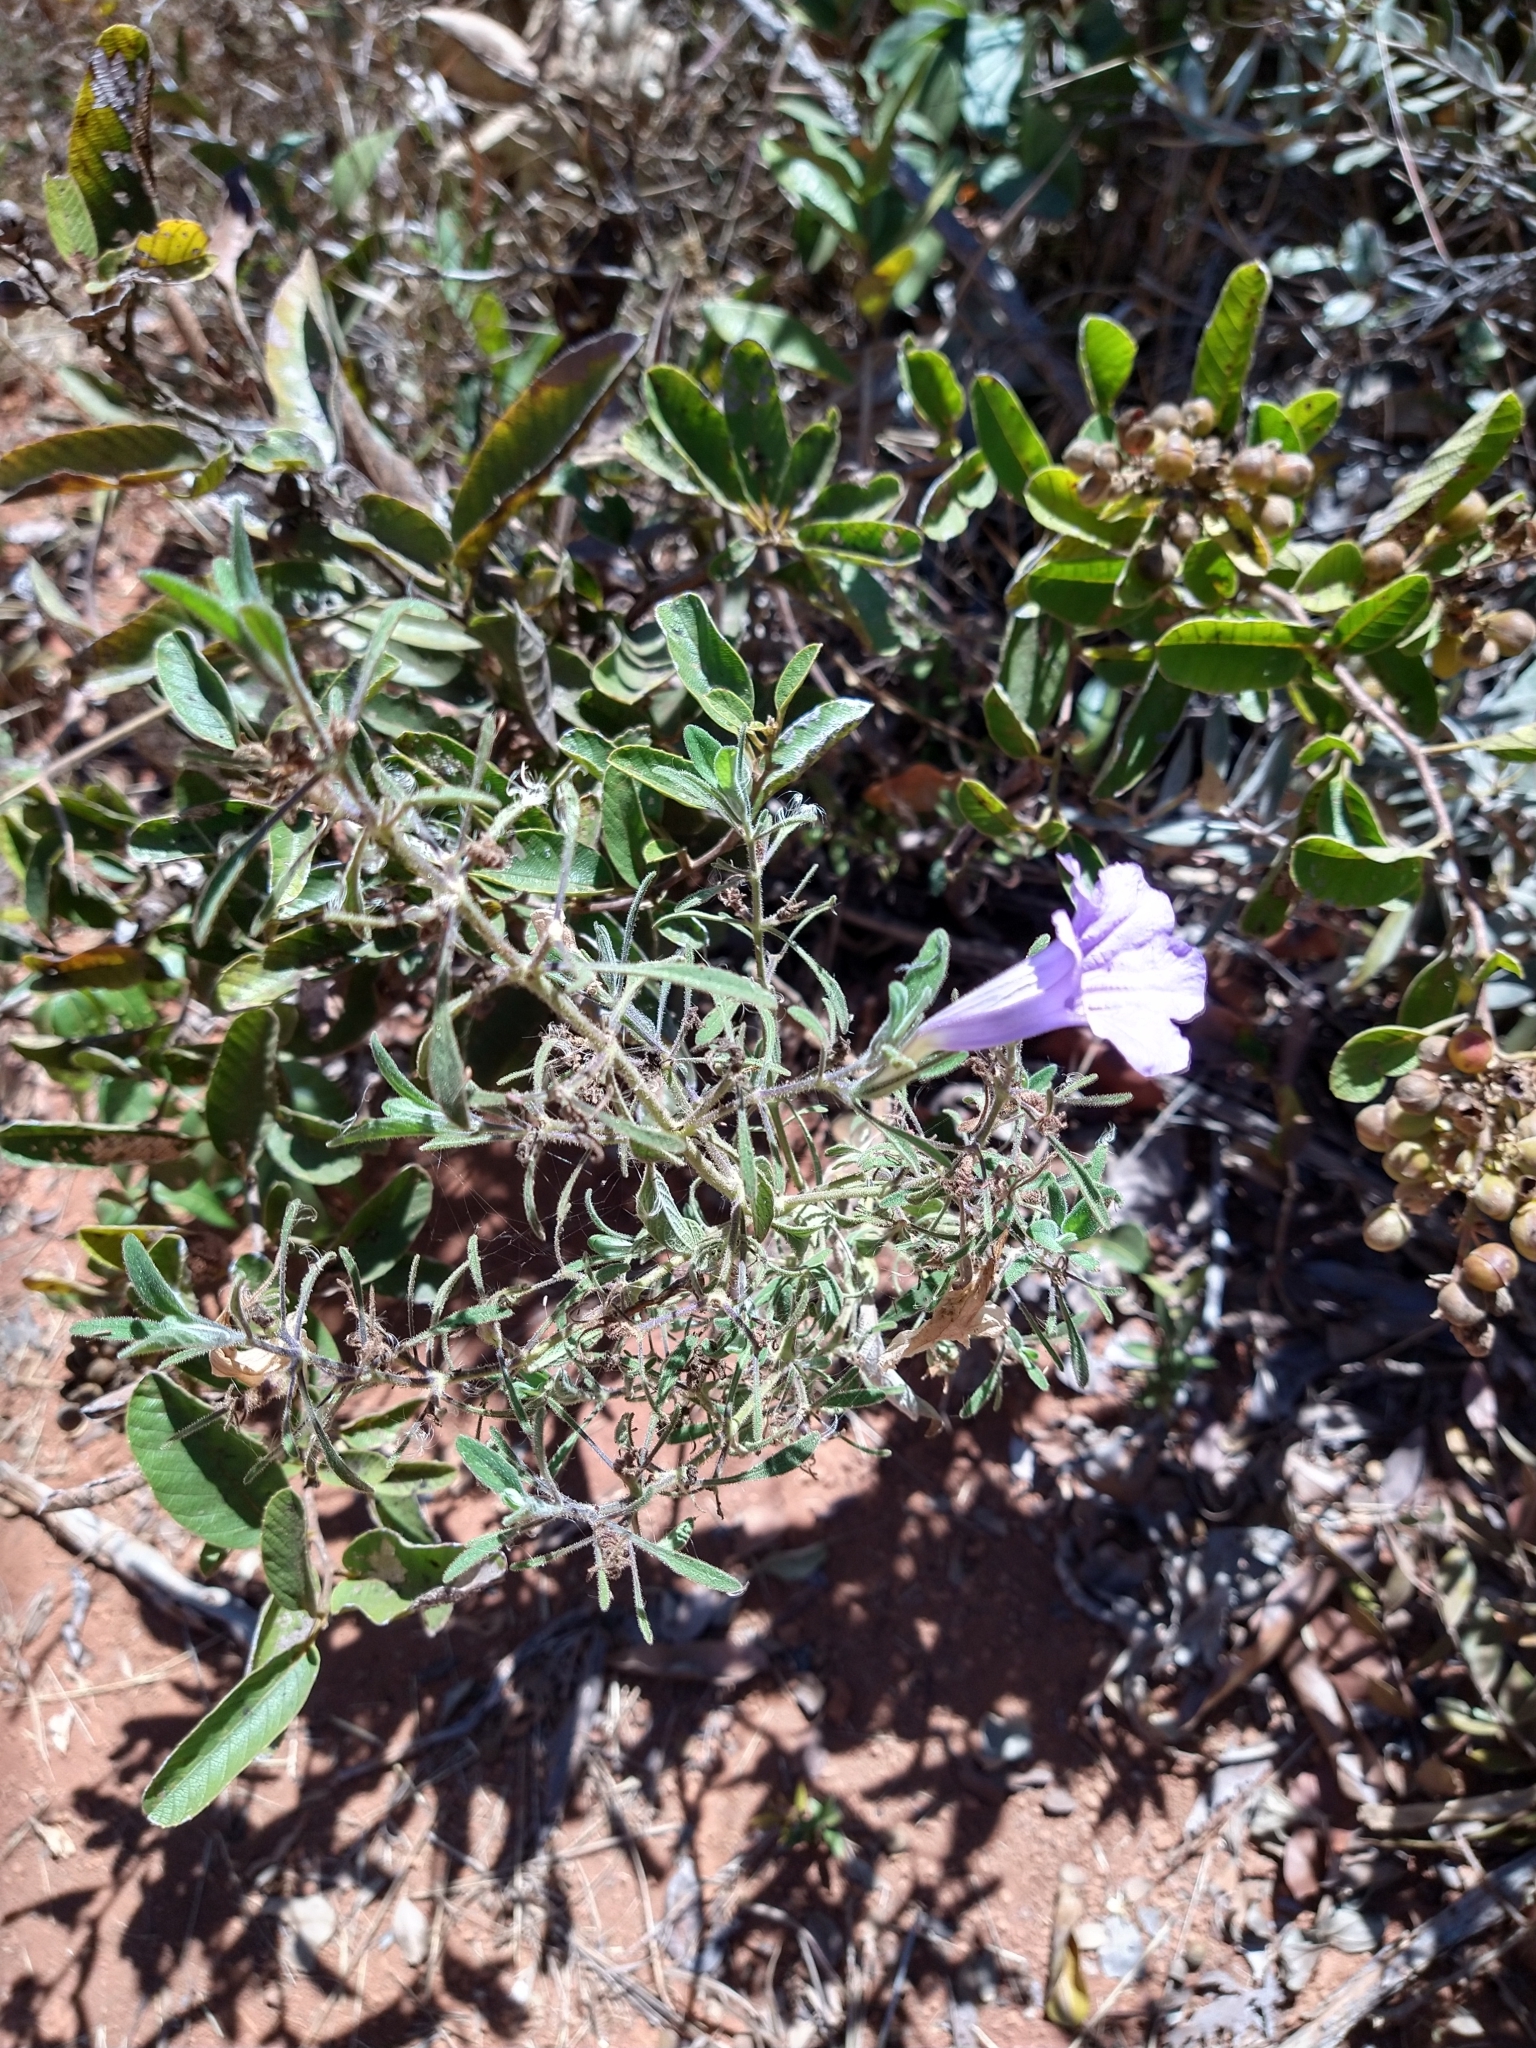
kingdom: Plantae
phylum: Tracheophyta
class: Magnoliopsida
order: Lamiales
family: Acanthaceae
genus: Ruellia
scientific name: Ruellia incompta
